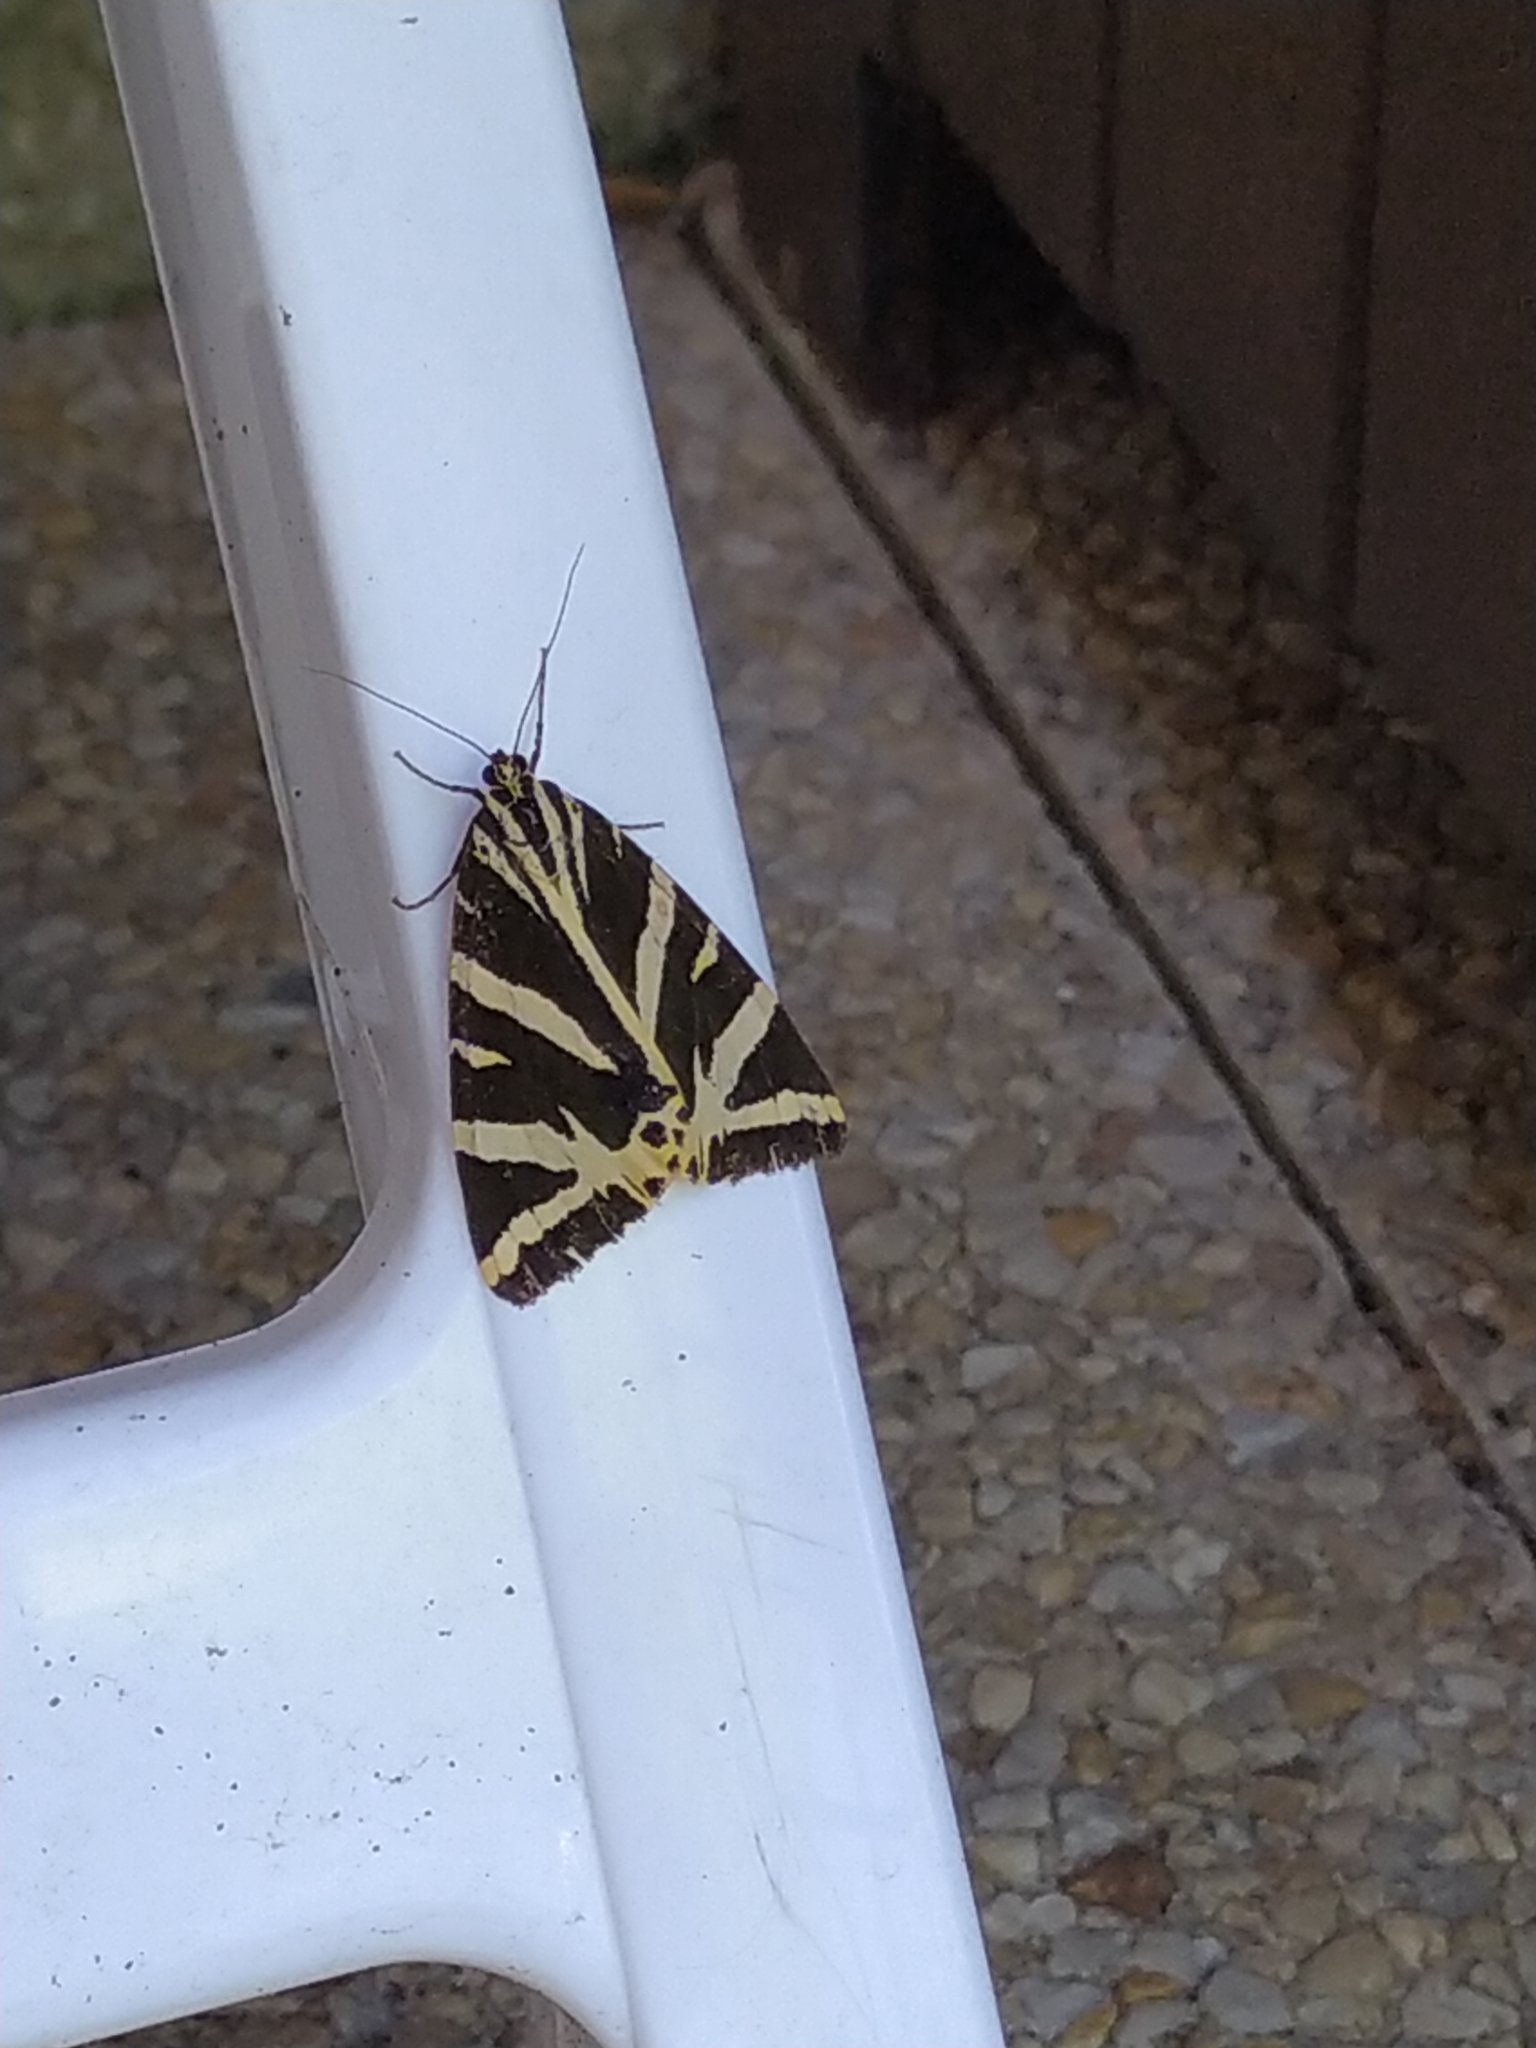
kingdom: Animalia
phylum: Arthropoda
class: Insecta
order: Lepidoptera
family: Erebidae
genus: Euplagia
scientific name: Euplagia quadripunctaria
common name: Jersey tiger
